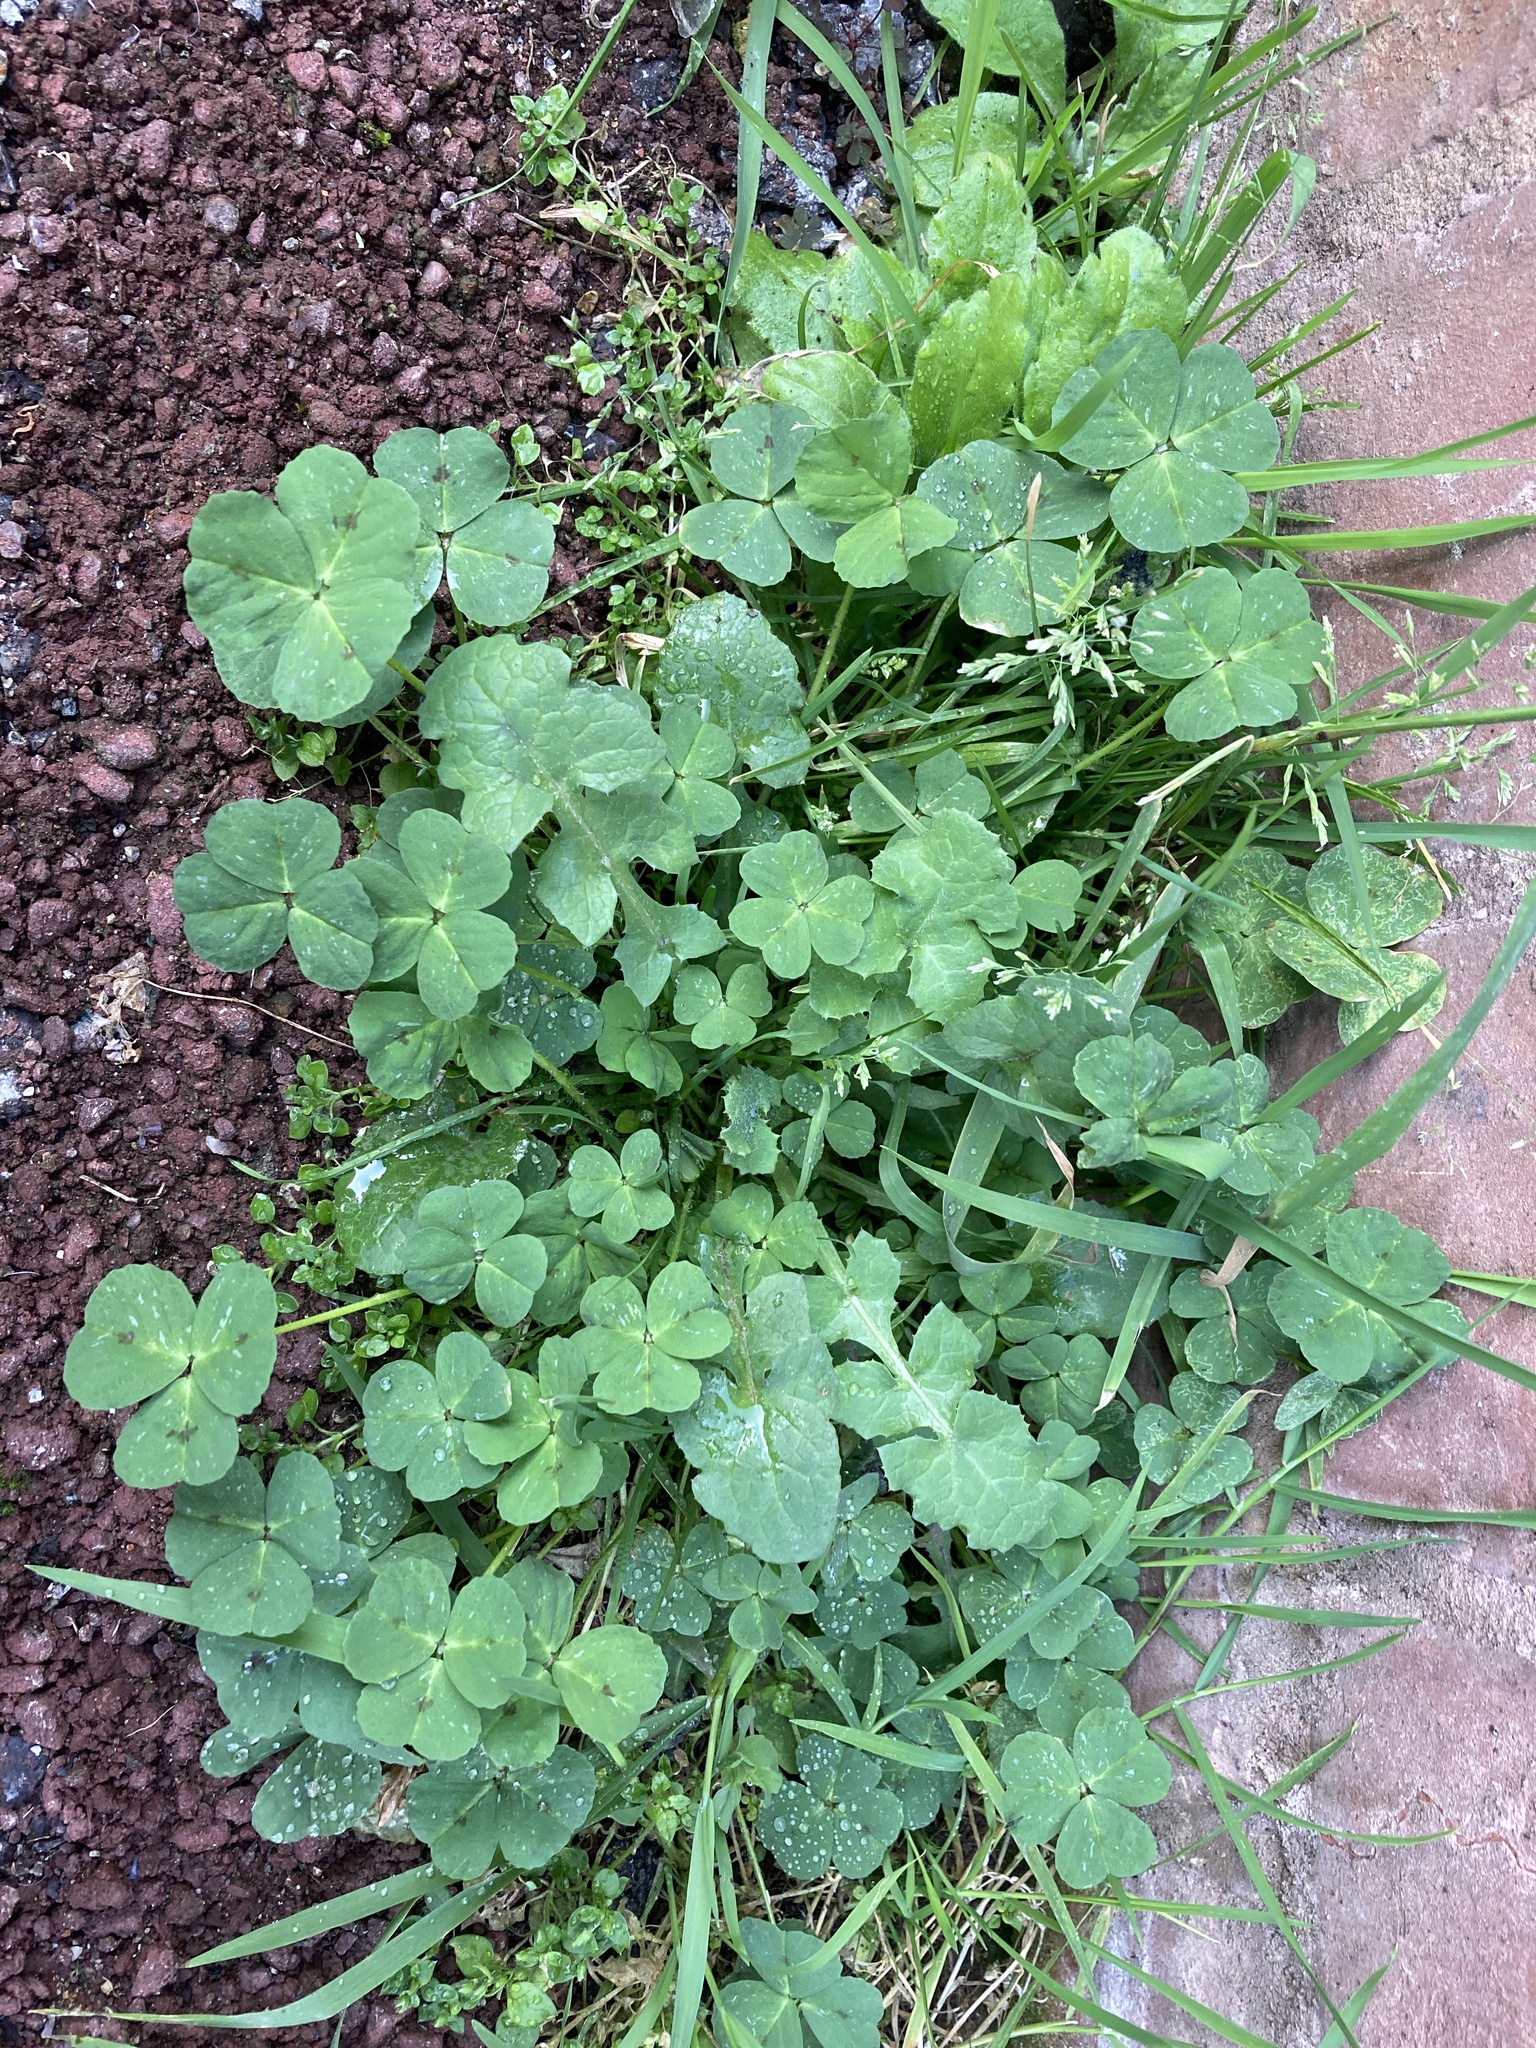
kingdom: Plantae
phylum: Tracheophyta
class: Magnoliopsida
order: Fabales
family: Fabaceae
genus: Medicago
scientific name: Medicago arabica
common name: Spotted medick
